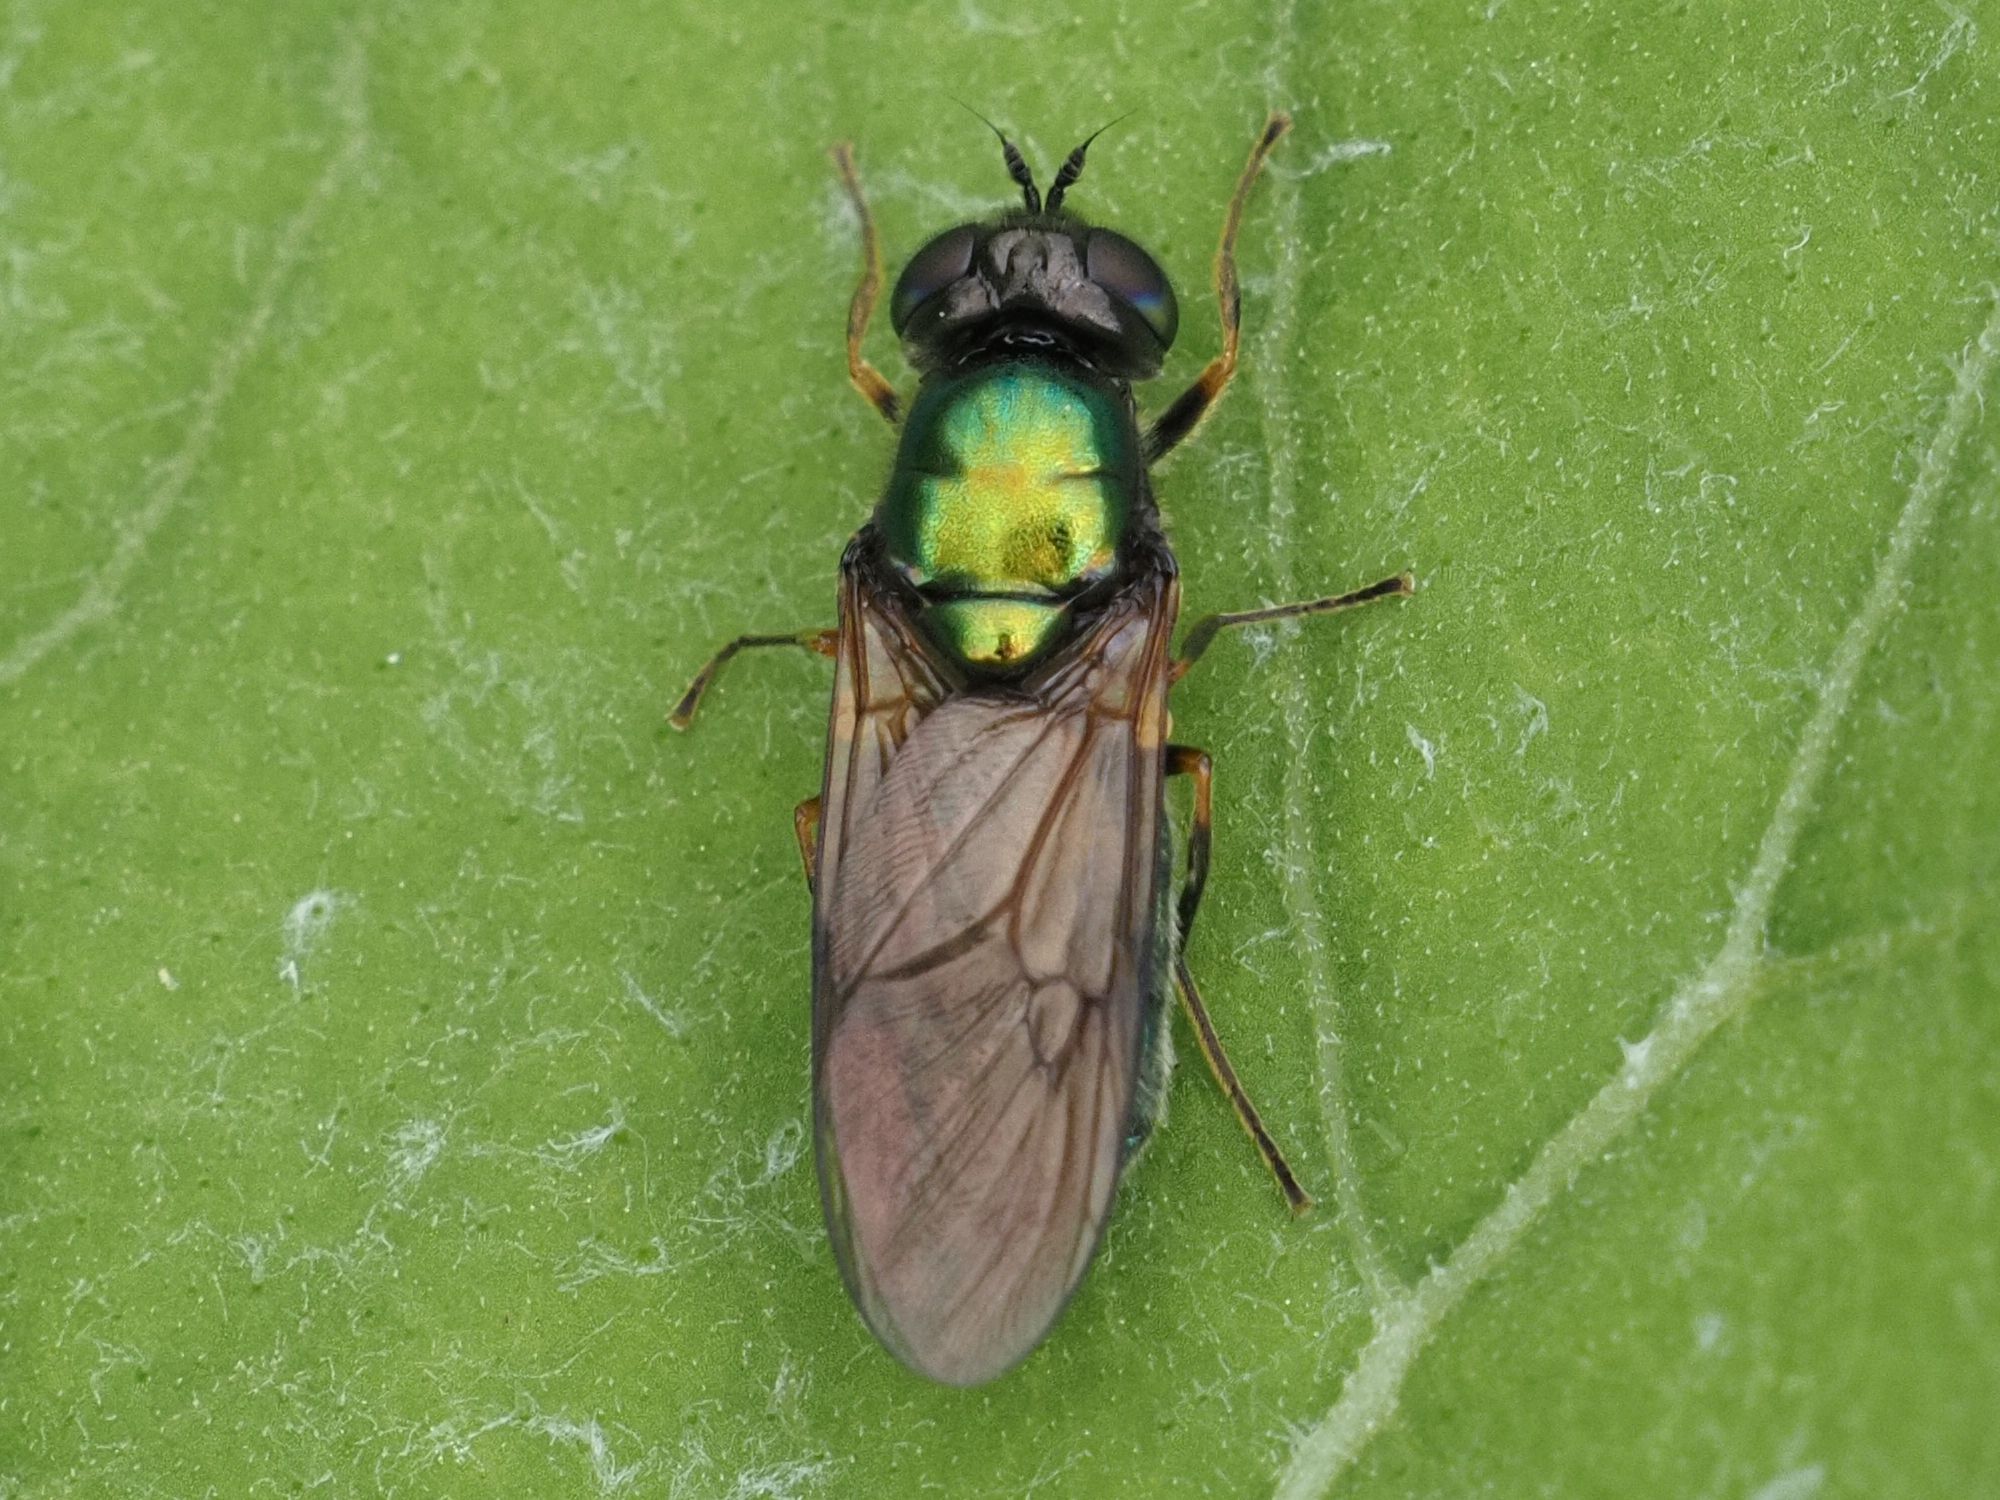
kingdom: Animalia
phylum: Arthropoda
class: Insecta
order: Diptera
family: Stratiomyidae
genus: Chloromyia
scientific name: Chloromyia formosa
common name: Soldier fly
